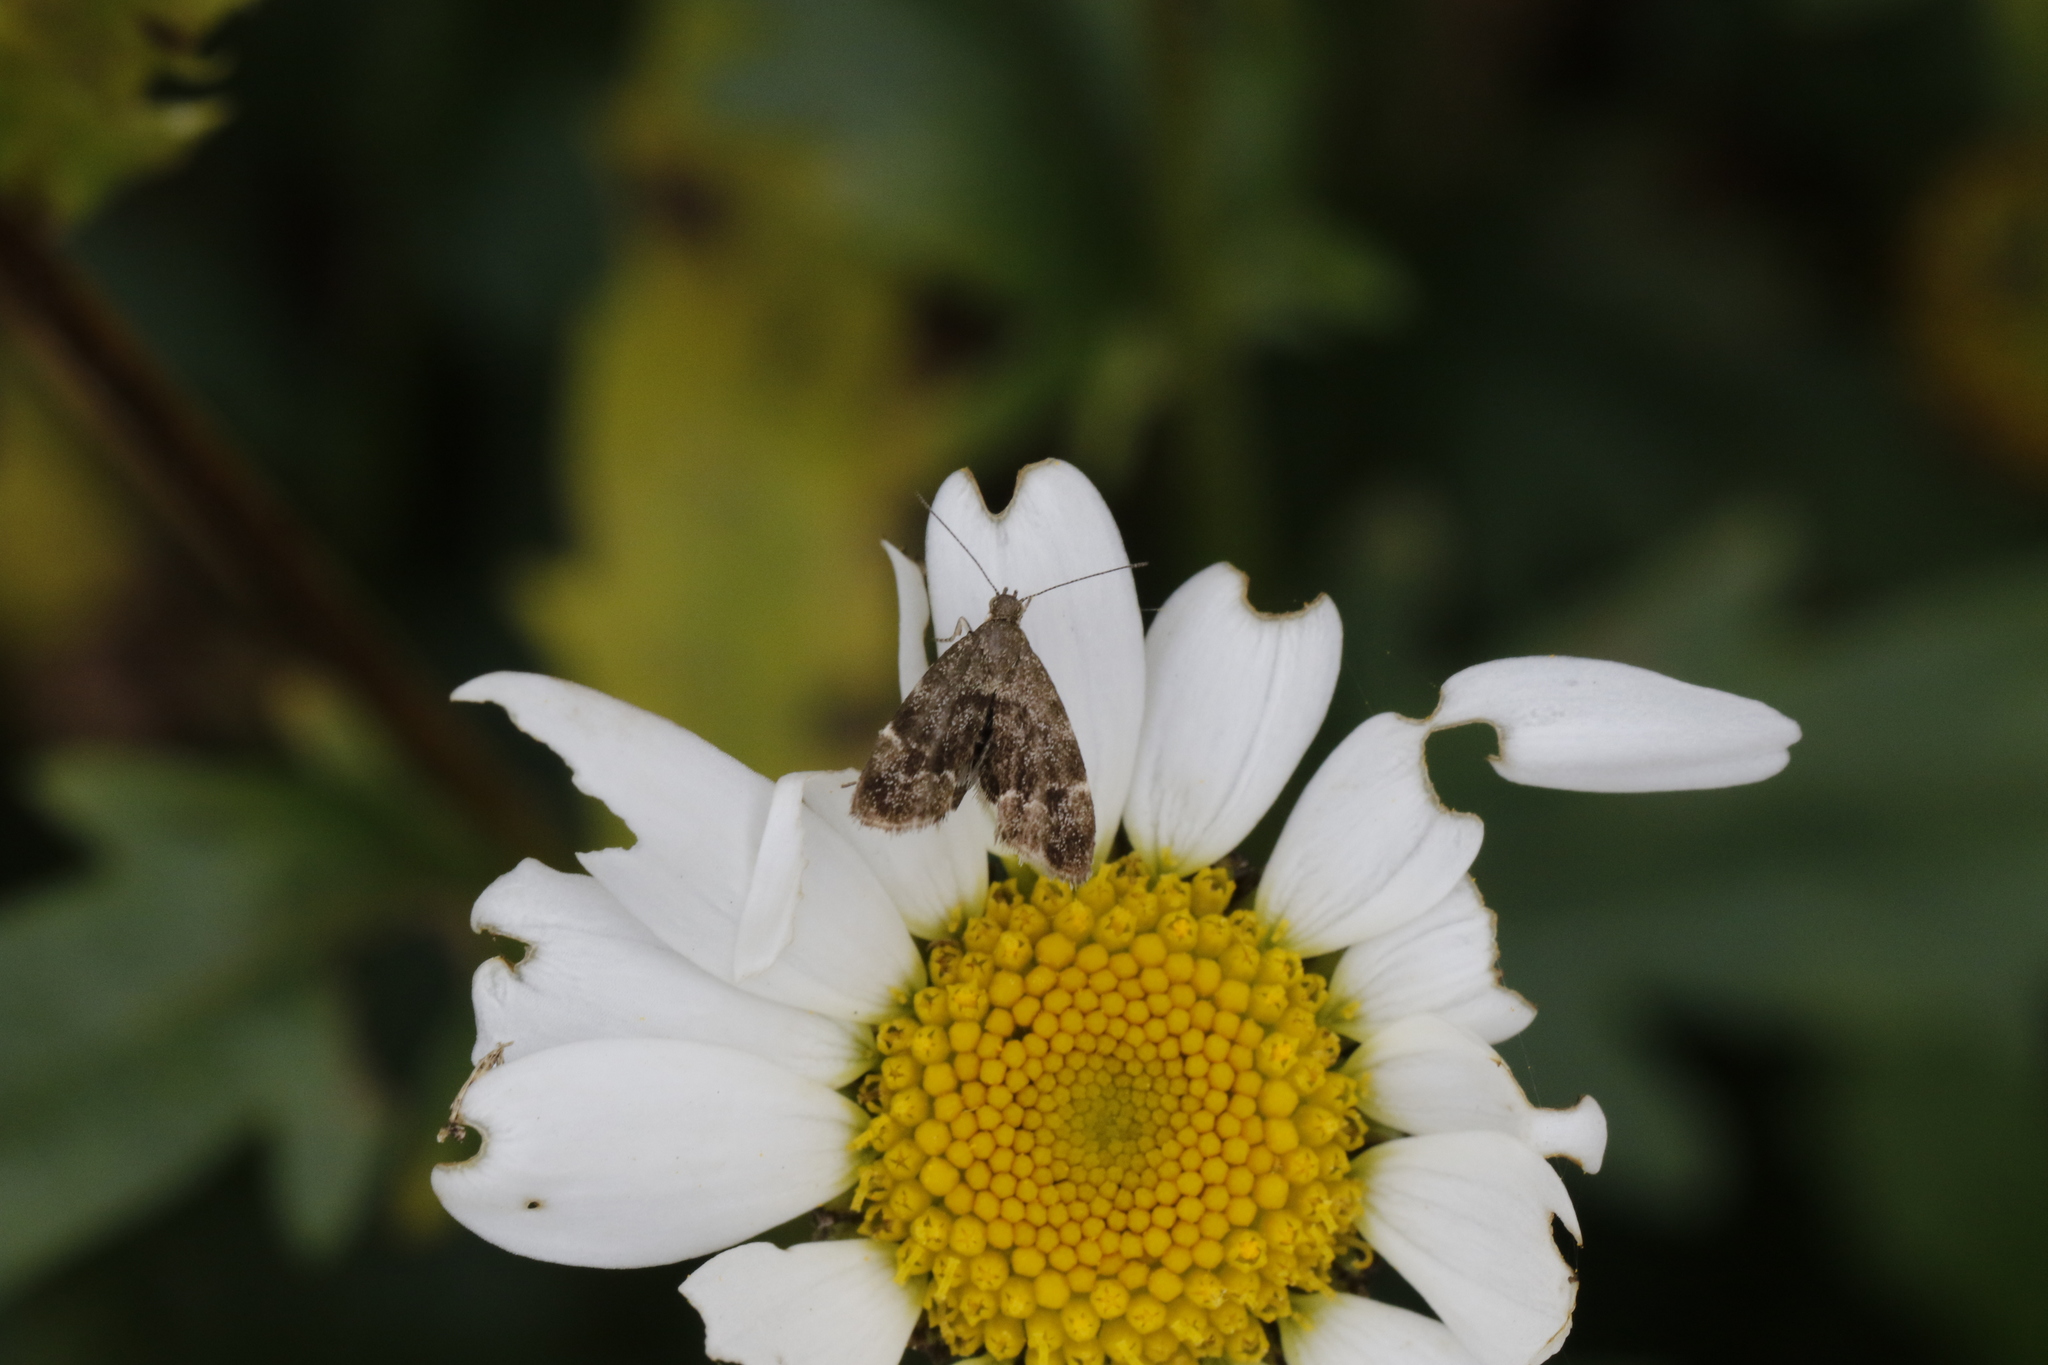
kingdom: Animalia
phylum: Arthropoda
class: Insecta
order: Lepidoptera
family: Choreutidae
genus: Anthophila
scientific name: Anthophila fabriciana
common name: Nettle-tap
